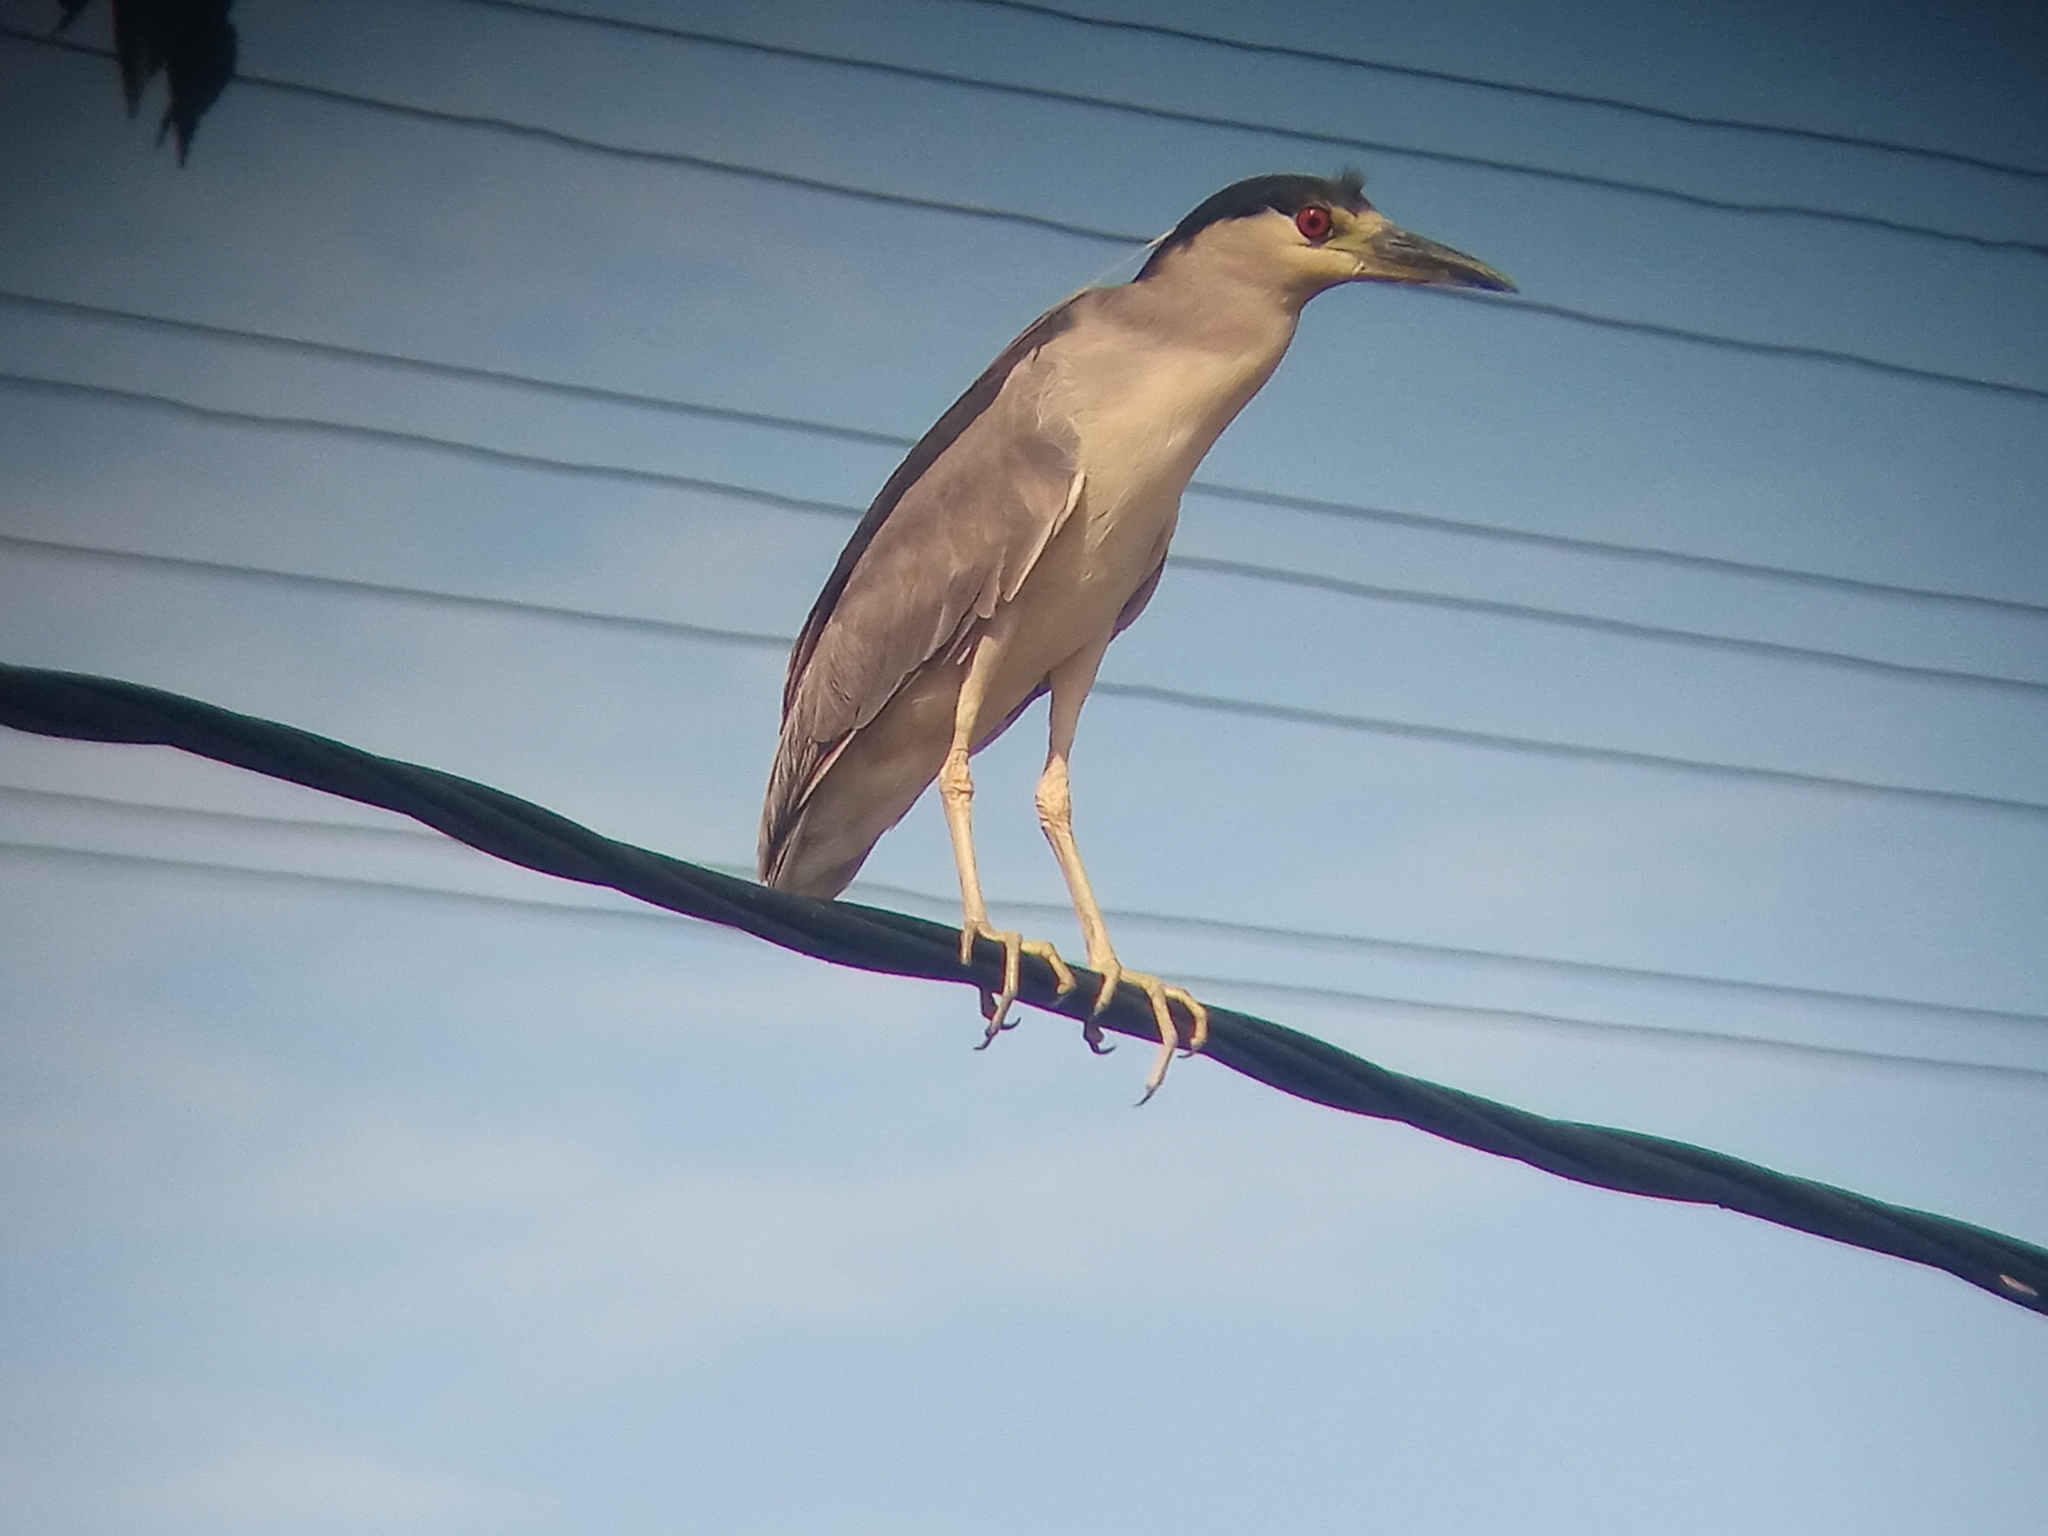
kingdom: Animalia
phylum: Chordata
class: Aves
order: Pelecaniformes
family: Ardeidae
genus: Nycticorax
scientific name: Nycticorax nycticorax
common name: Black-crowned night heron
